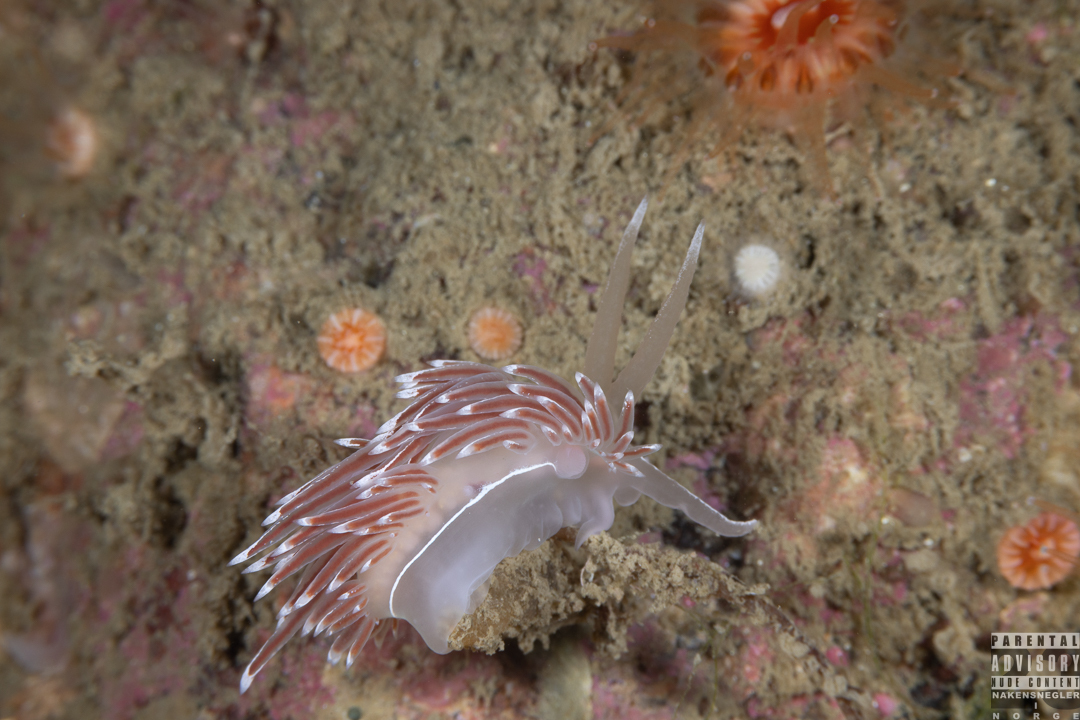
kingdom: Animalia
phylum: Mollusca
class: Gastropoda
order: Nudibranchia
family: Coryphellidae
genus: Coryphella
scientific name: Coryphella lineata
